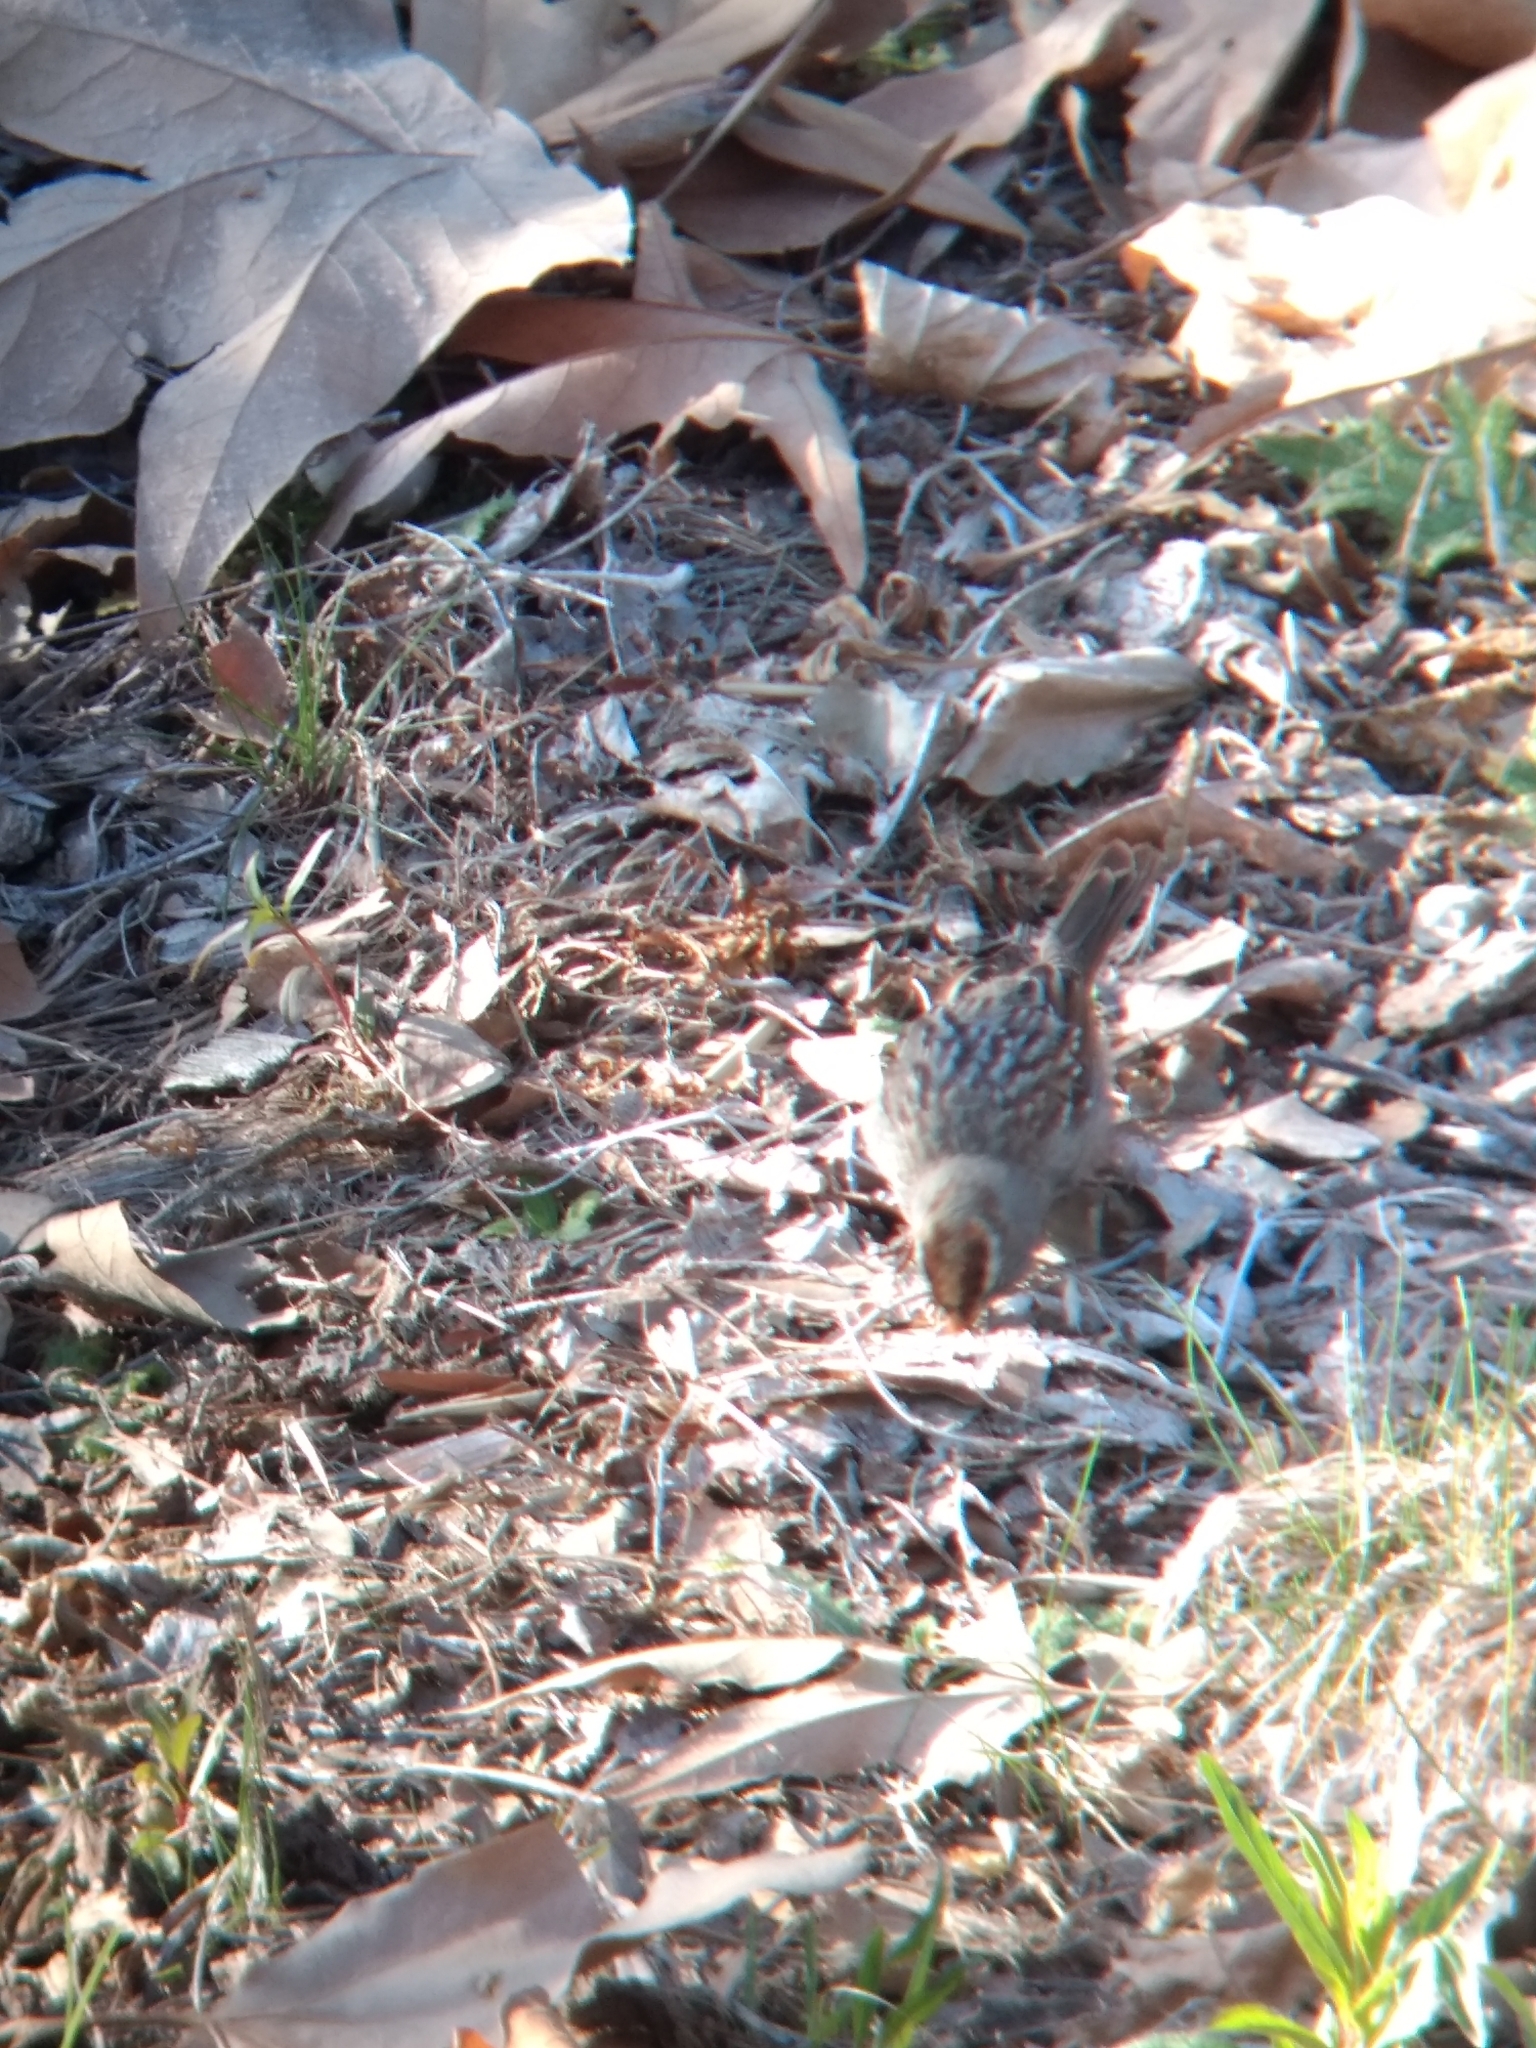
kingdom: Animalia
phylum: Chordata
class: Aves
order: Passeriformes
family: Passerellidae
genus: Zonotrichia
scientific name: Zonotrichia leucophrys
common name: White-crowned sparrow
